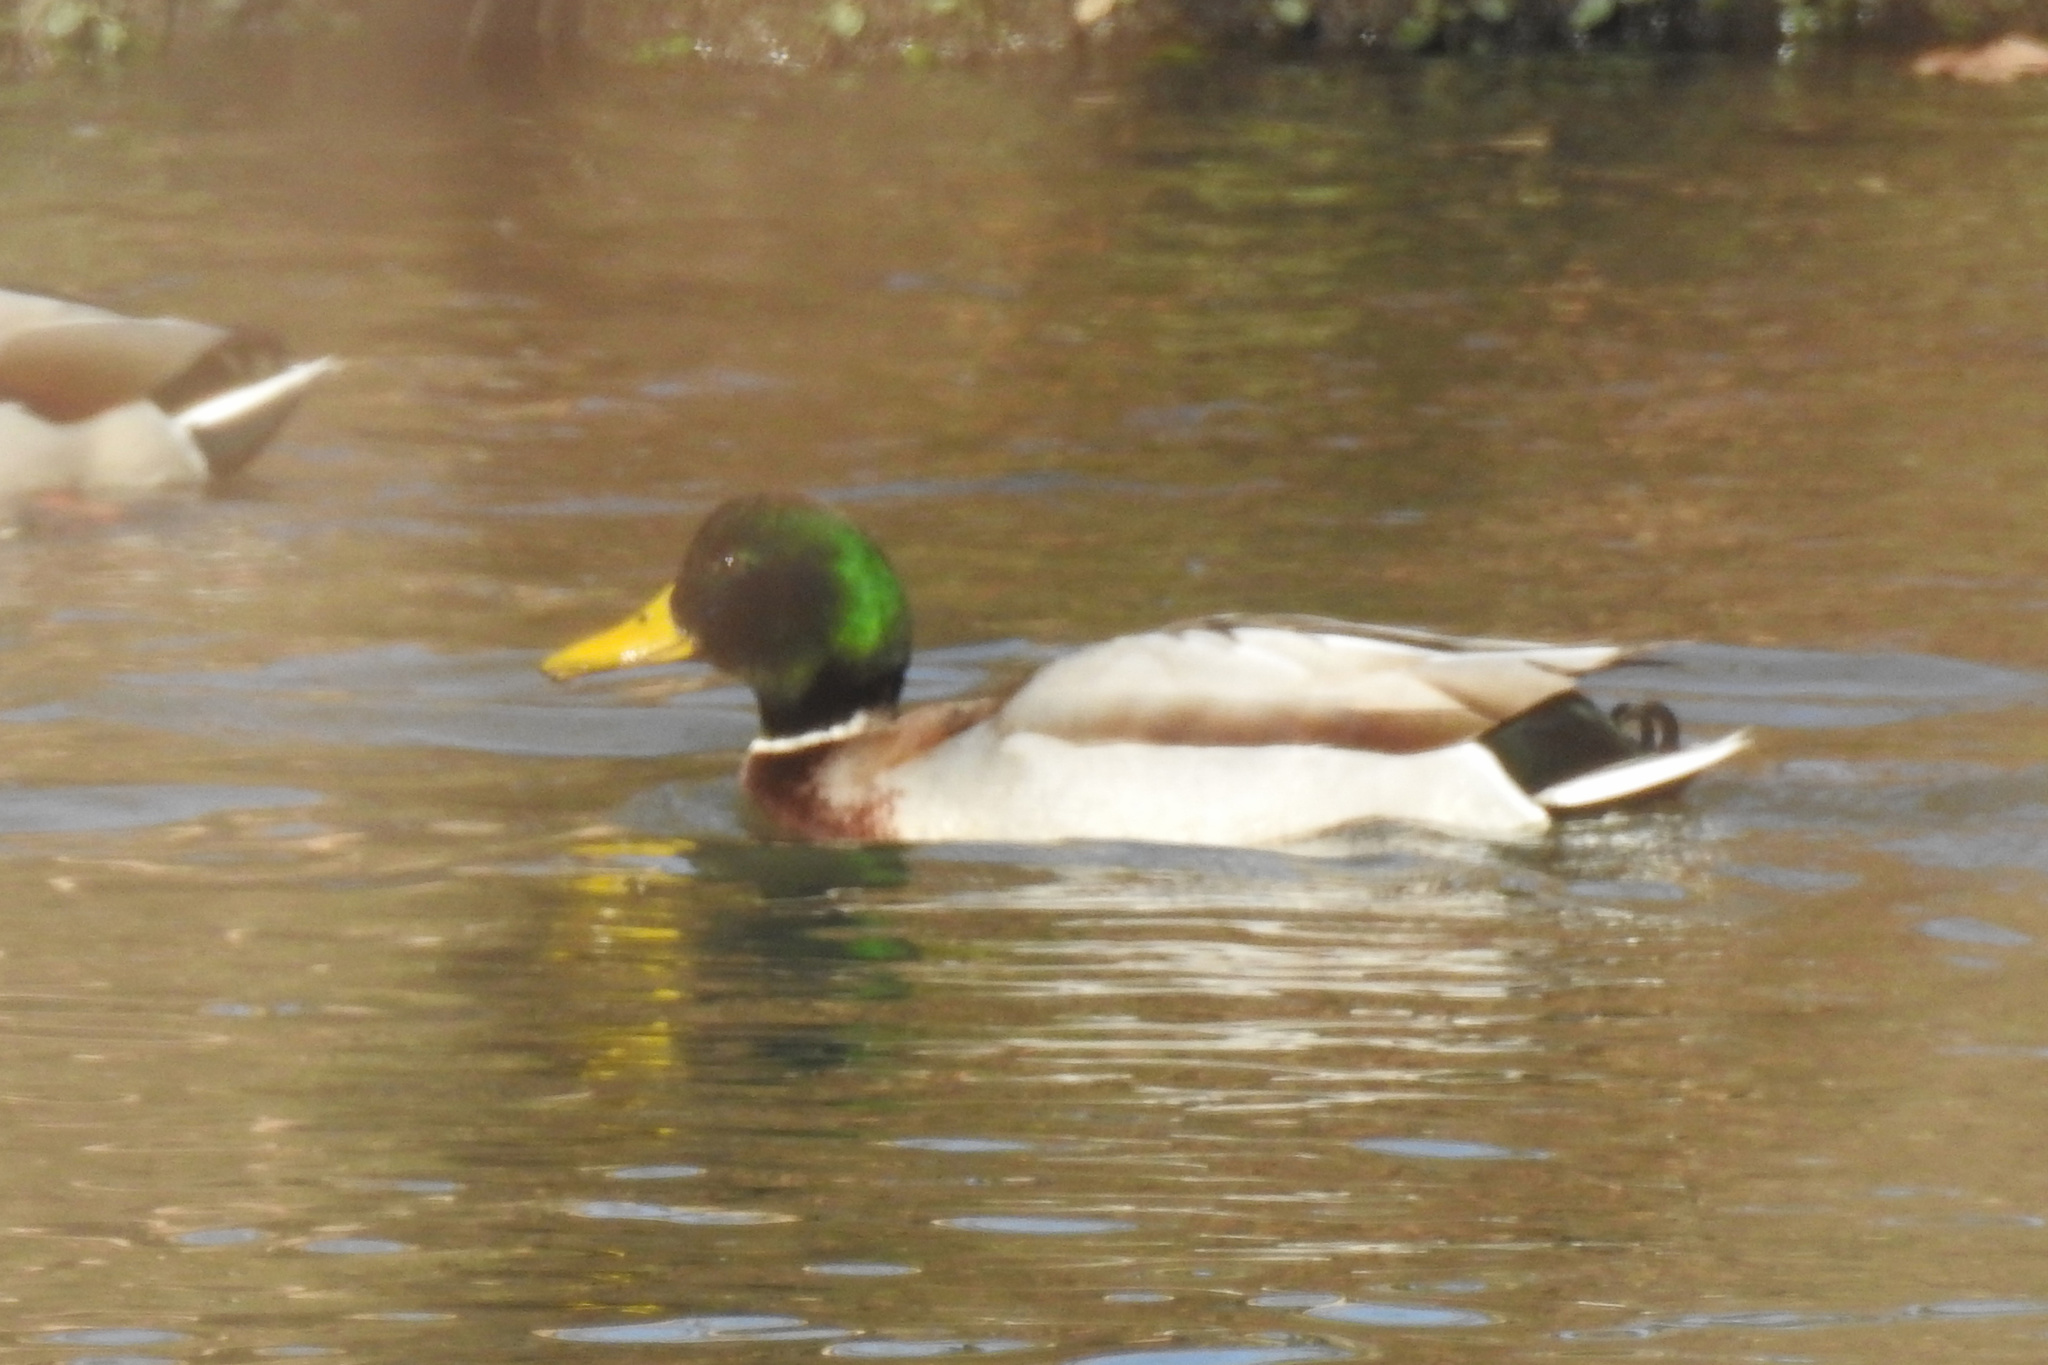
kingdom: Animalia
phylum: Chordata
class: Aves
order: Anseriformes
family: Anatidae
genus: Anas
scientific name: Anas platyrhynchos
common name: Mallard
